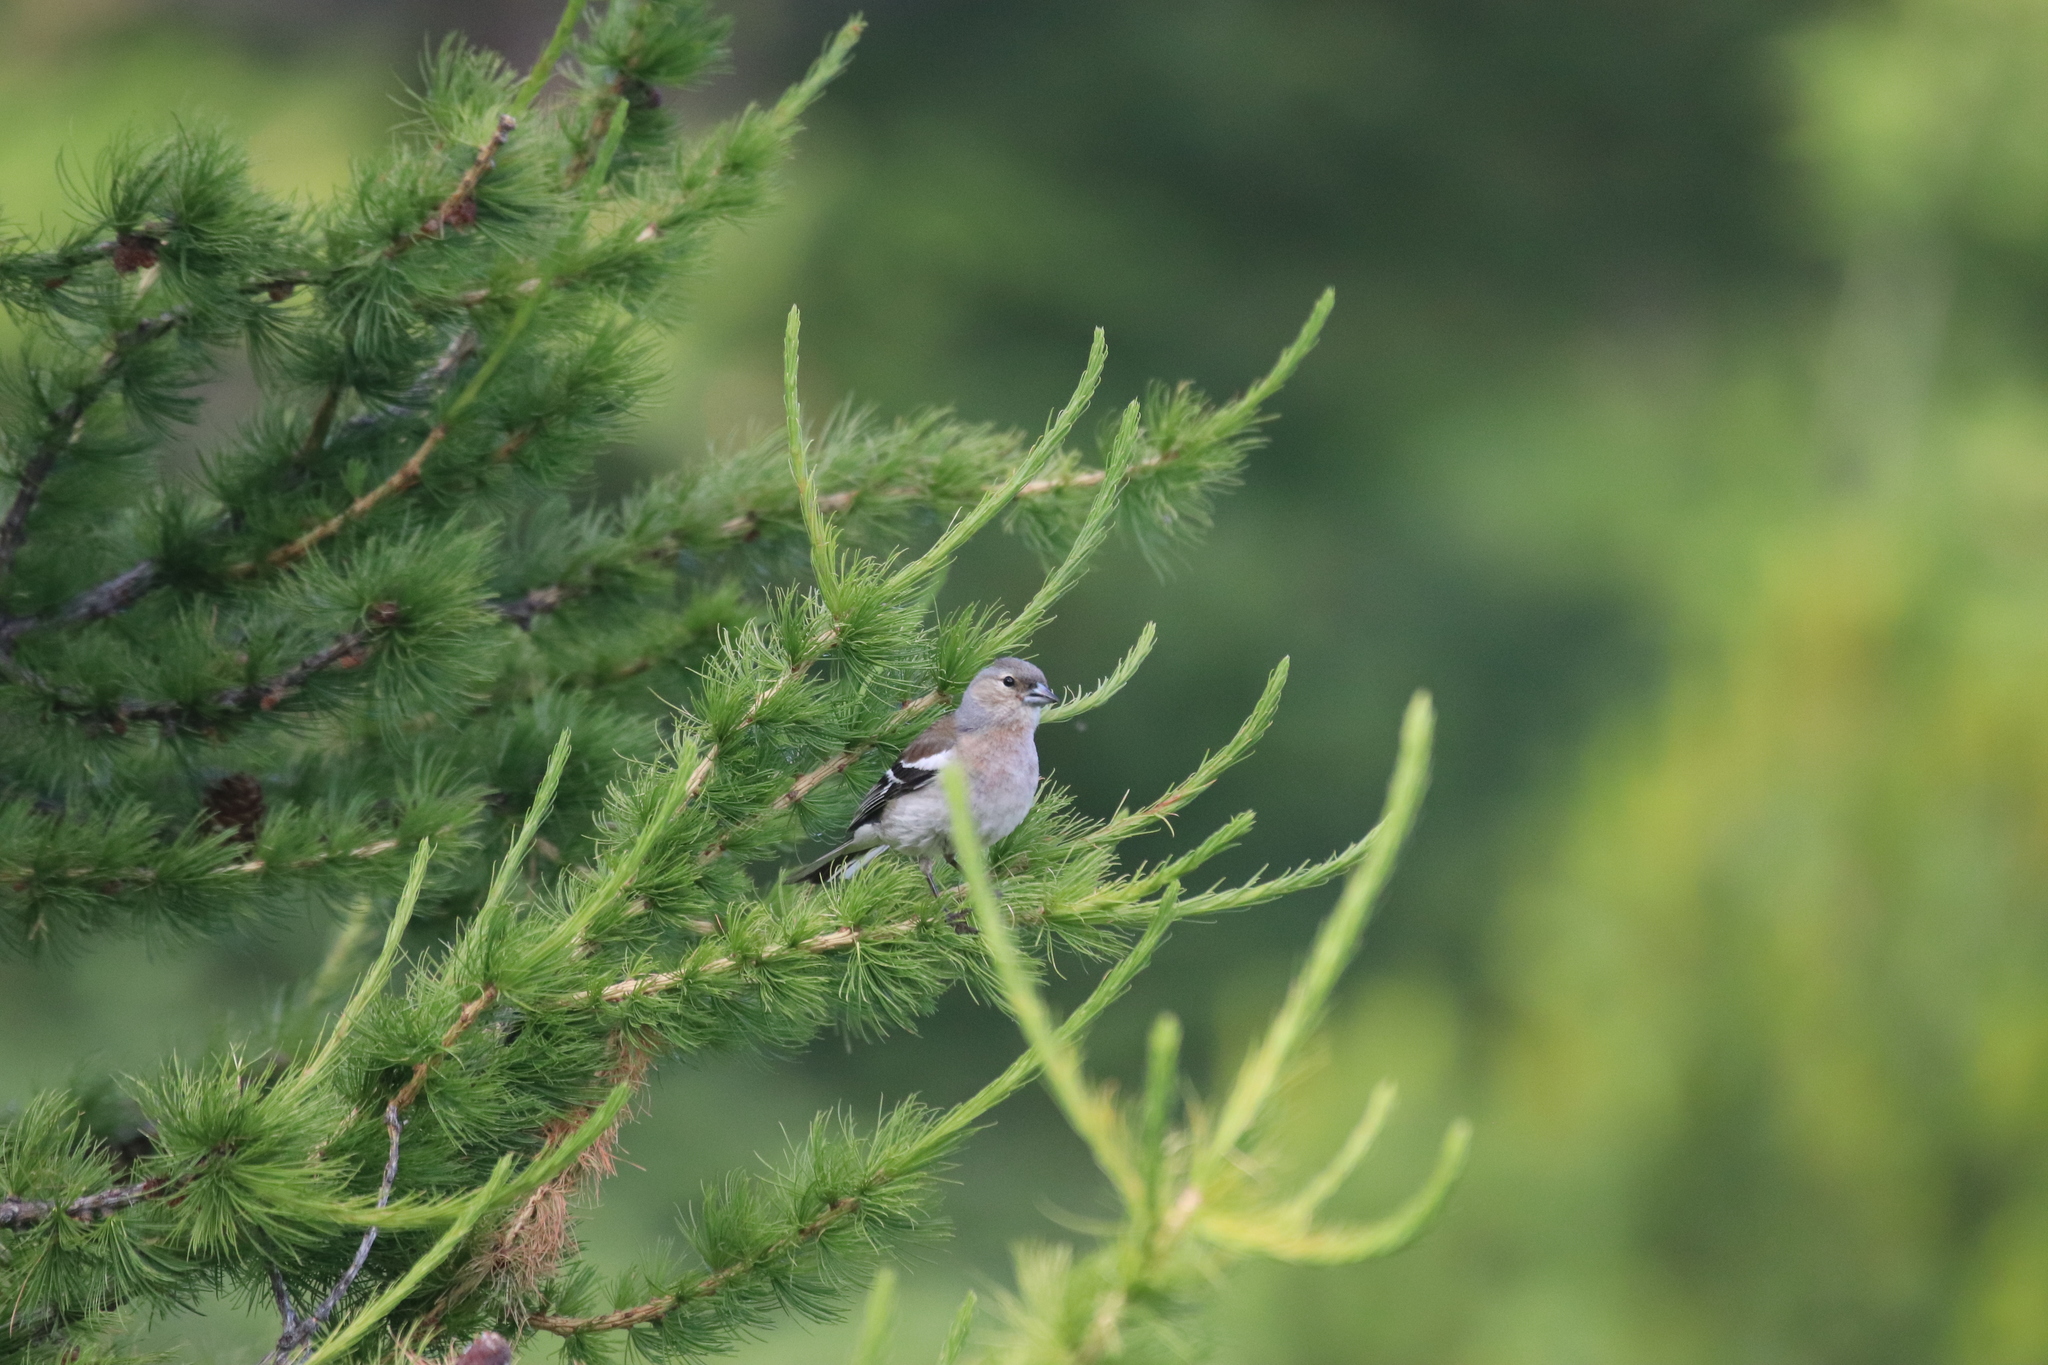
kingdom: Animalia
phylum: Chordata
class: Aves
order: Passeriformes
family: Fringillidae
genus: Fringilla
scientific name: Fringilla coelebs
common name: Common chaffinch
